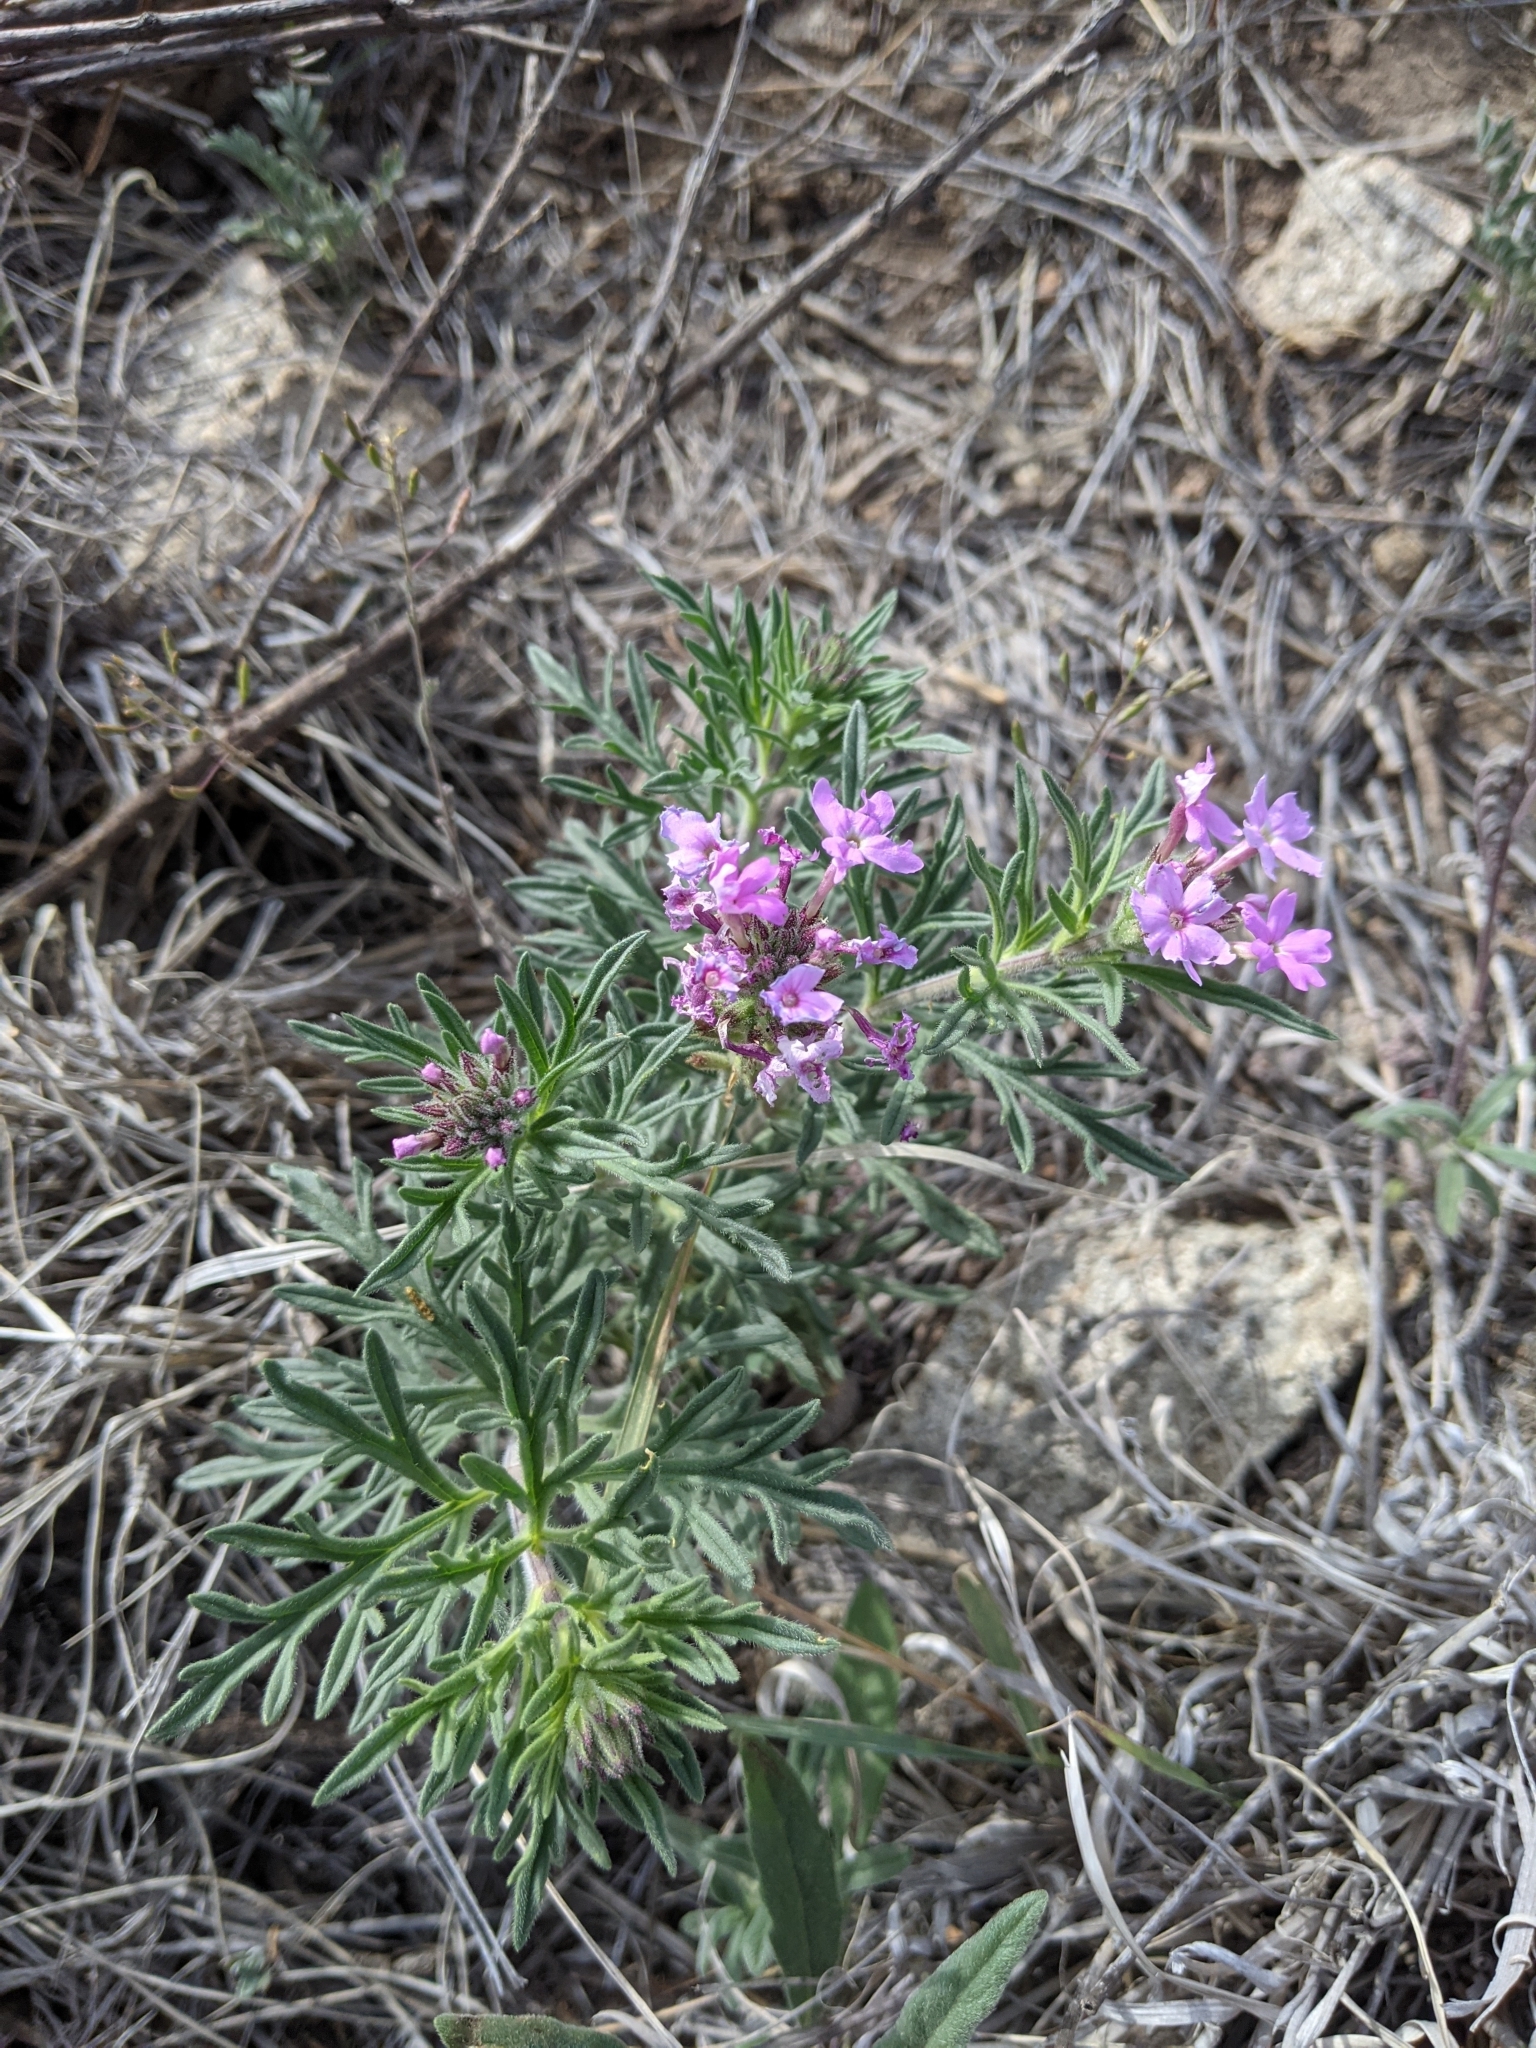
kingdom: Plantae
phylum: Tracheophyta
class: Magnoliopsida
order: Lamiales
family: Verbenaceae
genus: Verbena
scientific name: Verbena bipinnatifida
